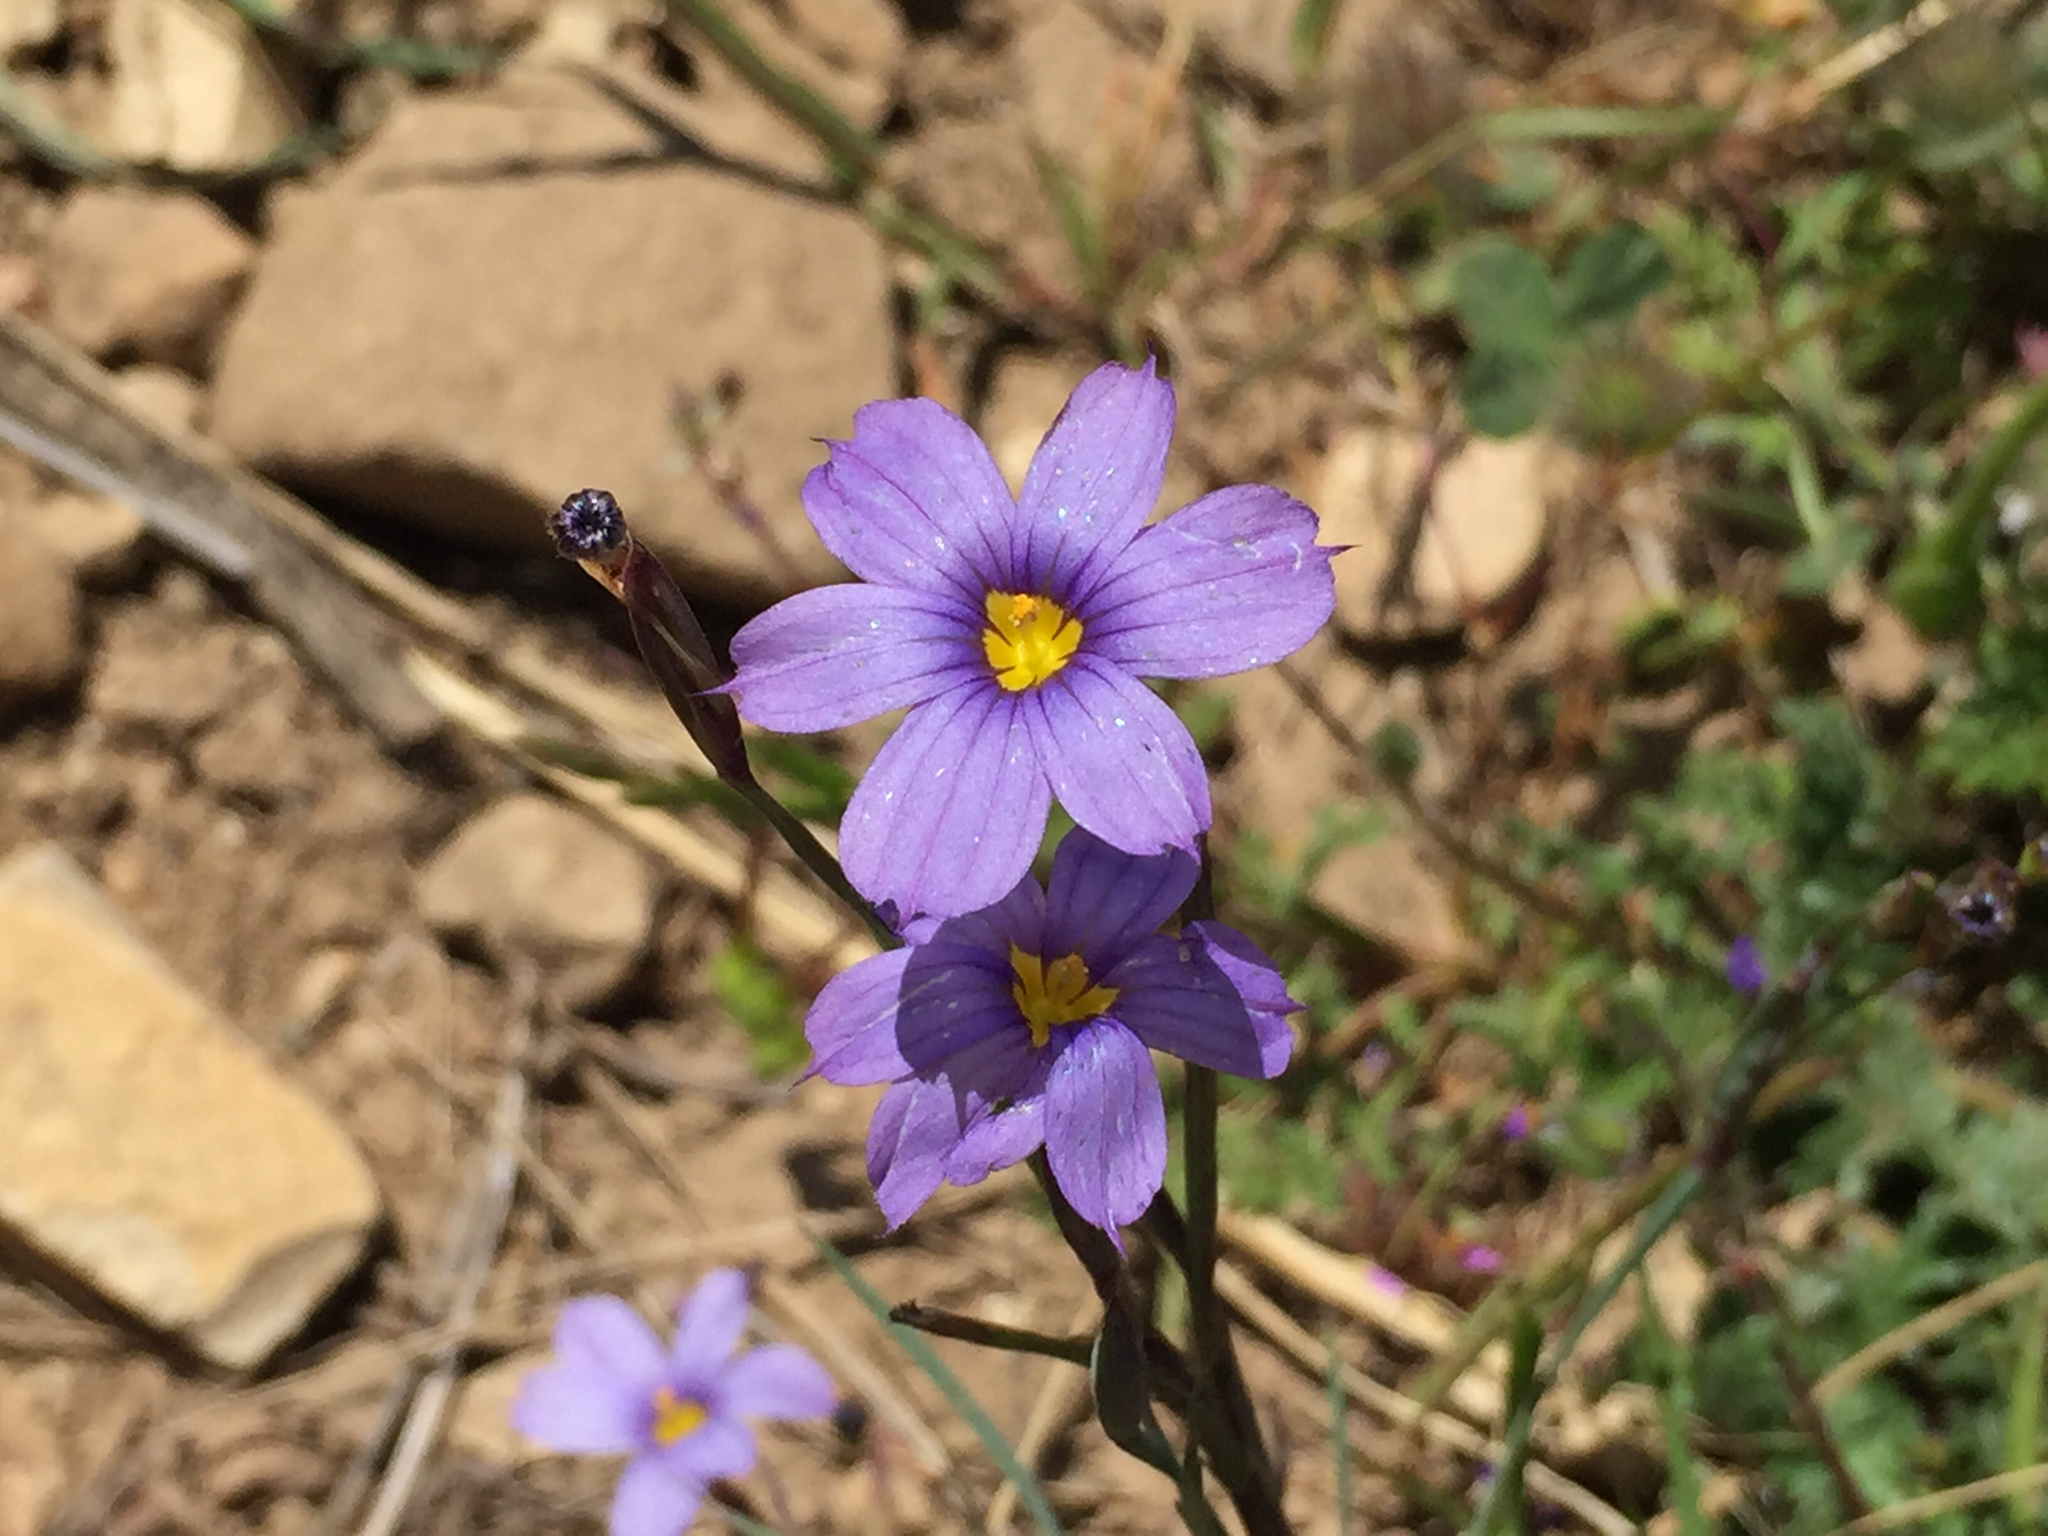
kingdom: Plantae
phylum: Tracheophyta
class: Liliopsida
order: Asparagales
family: Iridaceae
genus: Sisyrinchium
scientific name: Sisyrinchium bellum
